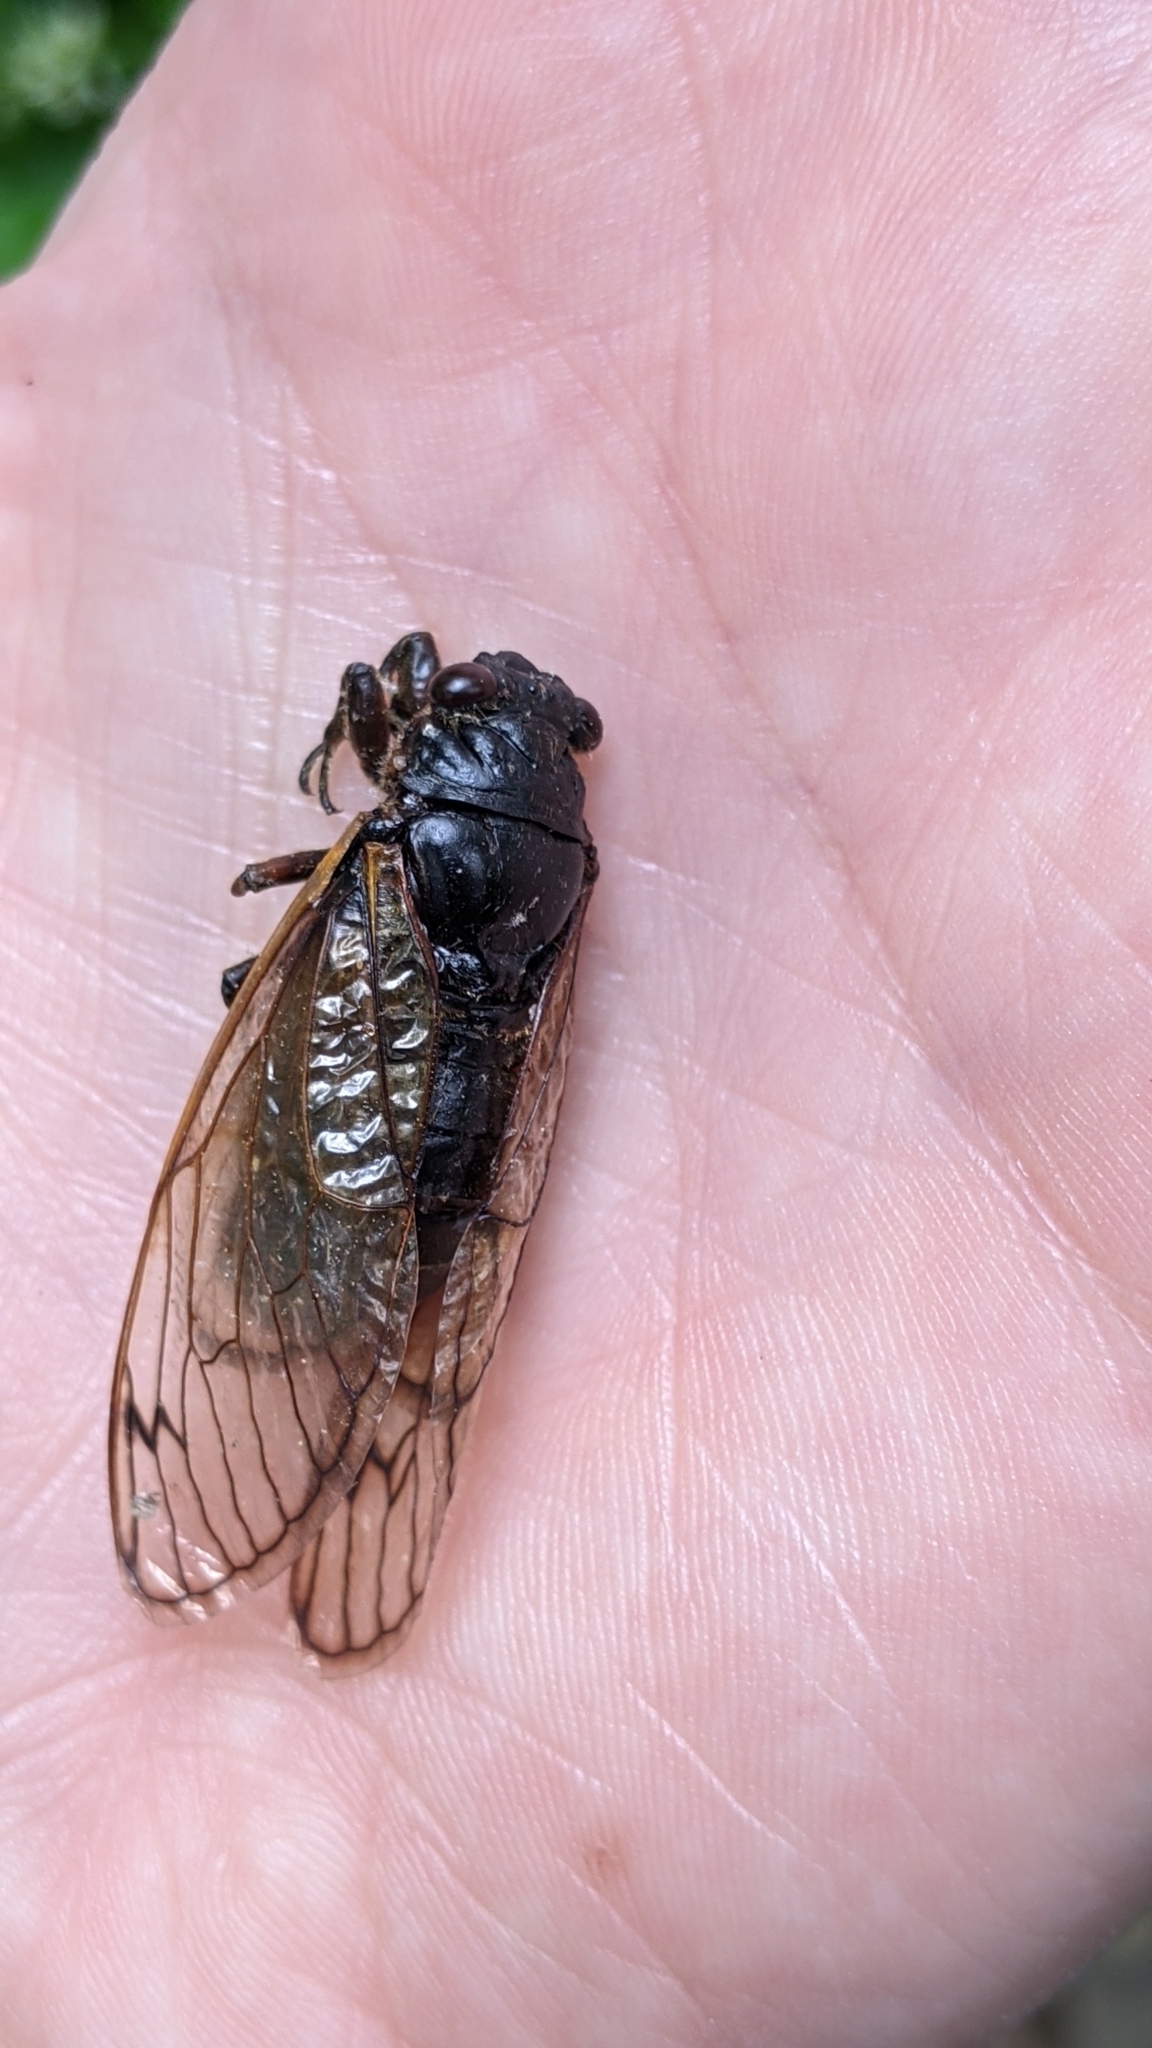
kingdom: Animalia
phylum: Arthropoda
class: Insecta
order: Hemiptera
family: Cicadidae
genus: Magicicada
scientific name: Magicicada
